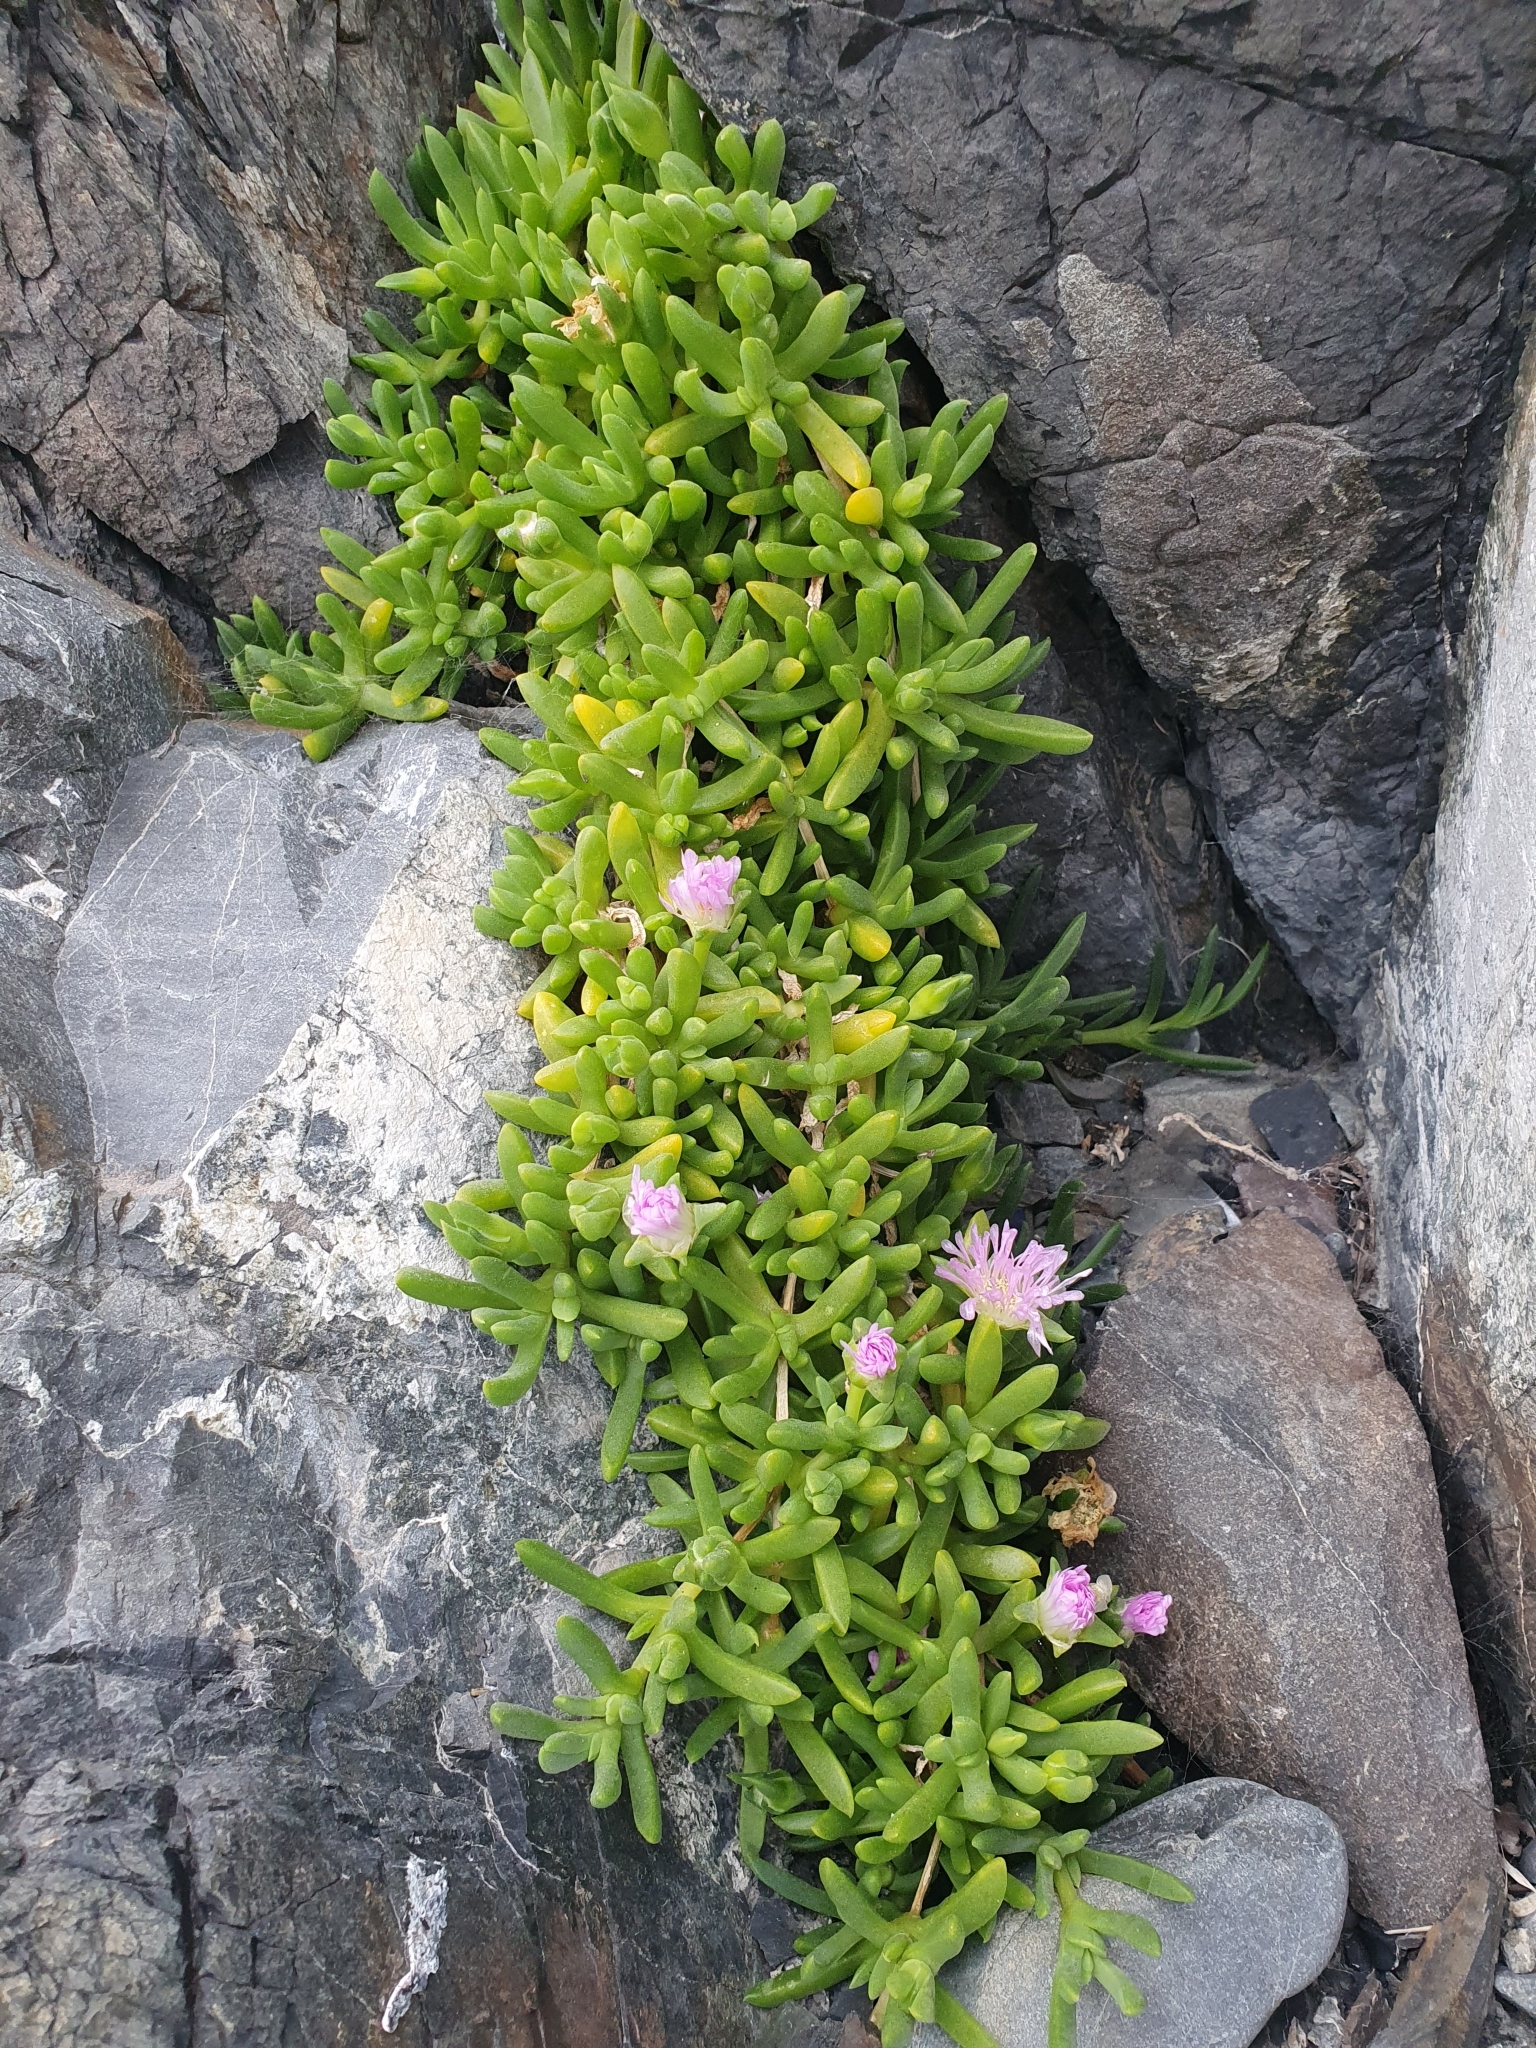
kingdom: Plantae
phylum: Tracheophyta
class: Magnoliopsida
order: Caryophyllales
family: Aizoaceae
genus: Disphyma
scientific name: Disphyma australe
